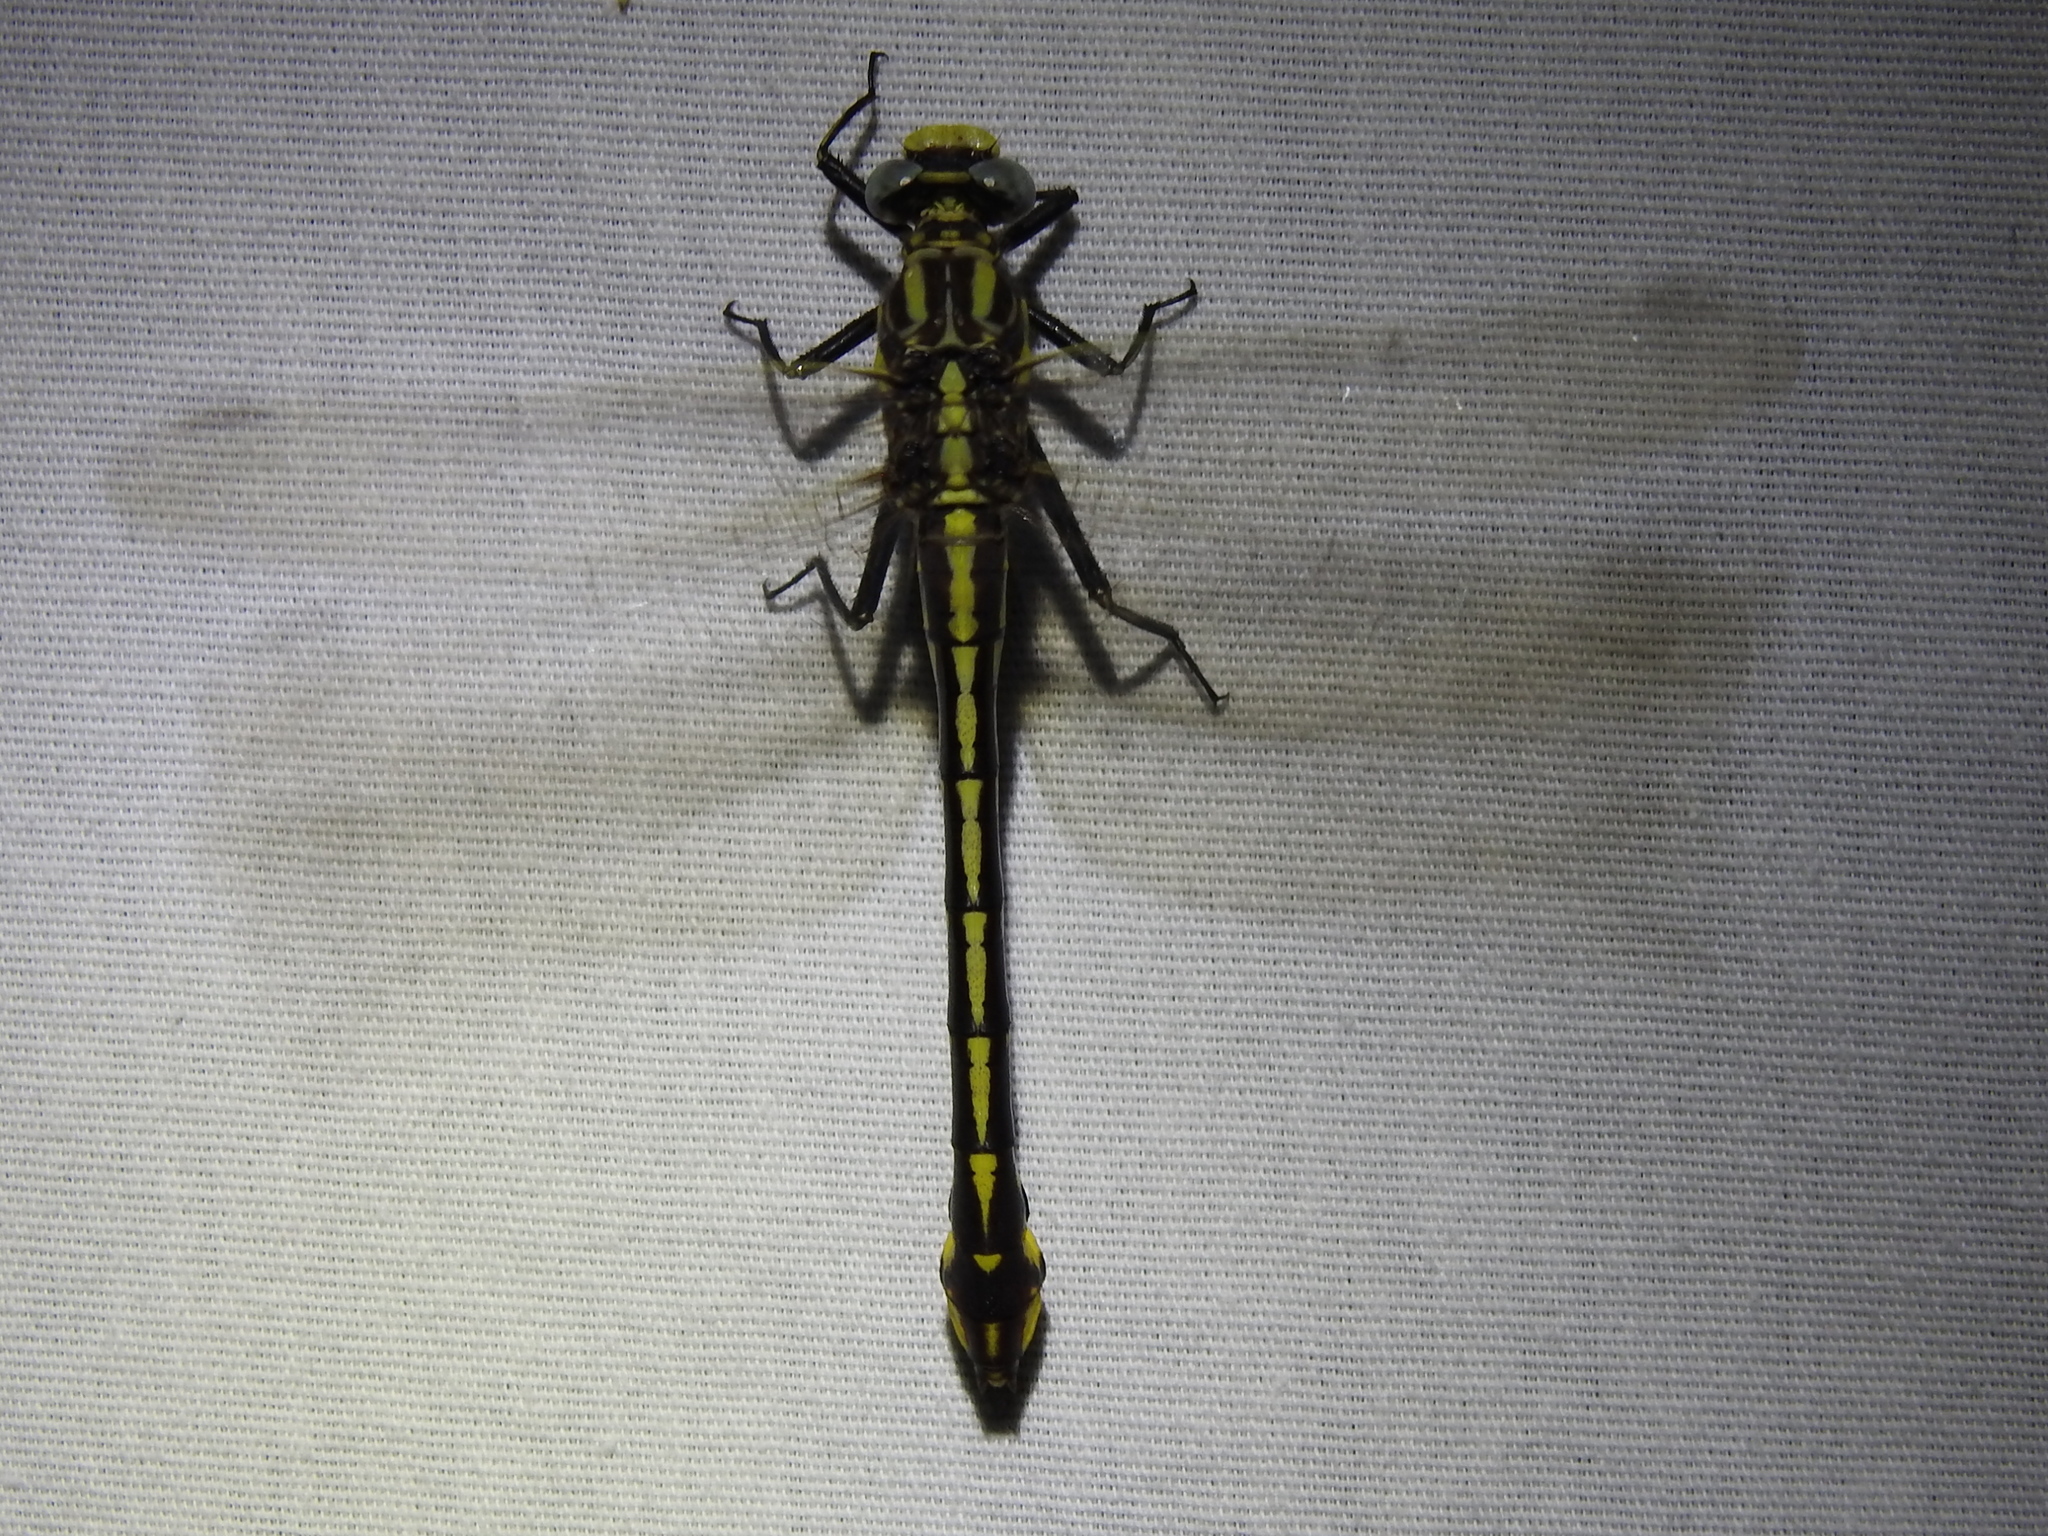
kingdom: Animalia
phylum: Arthropoda
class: Insecta
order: Odonata
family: Gomphidae
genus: Gomphurus
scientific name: Gomphurus externus
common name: Plains clubtail
